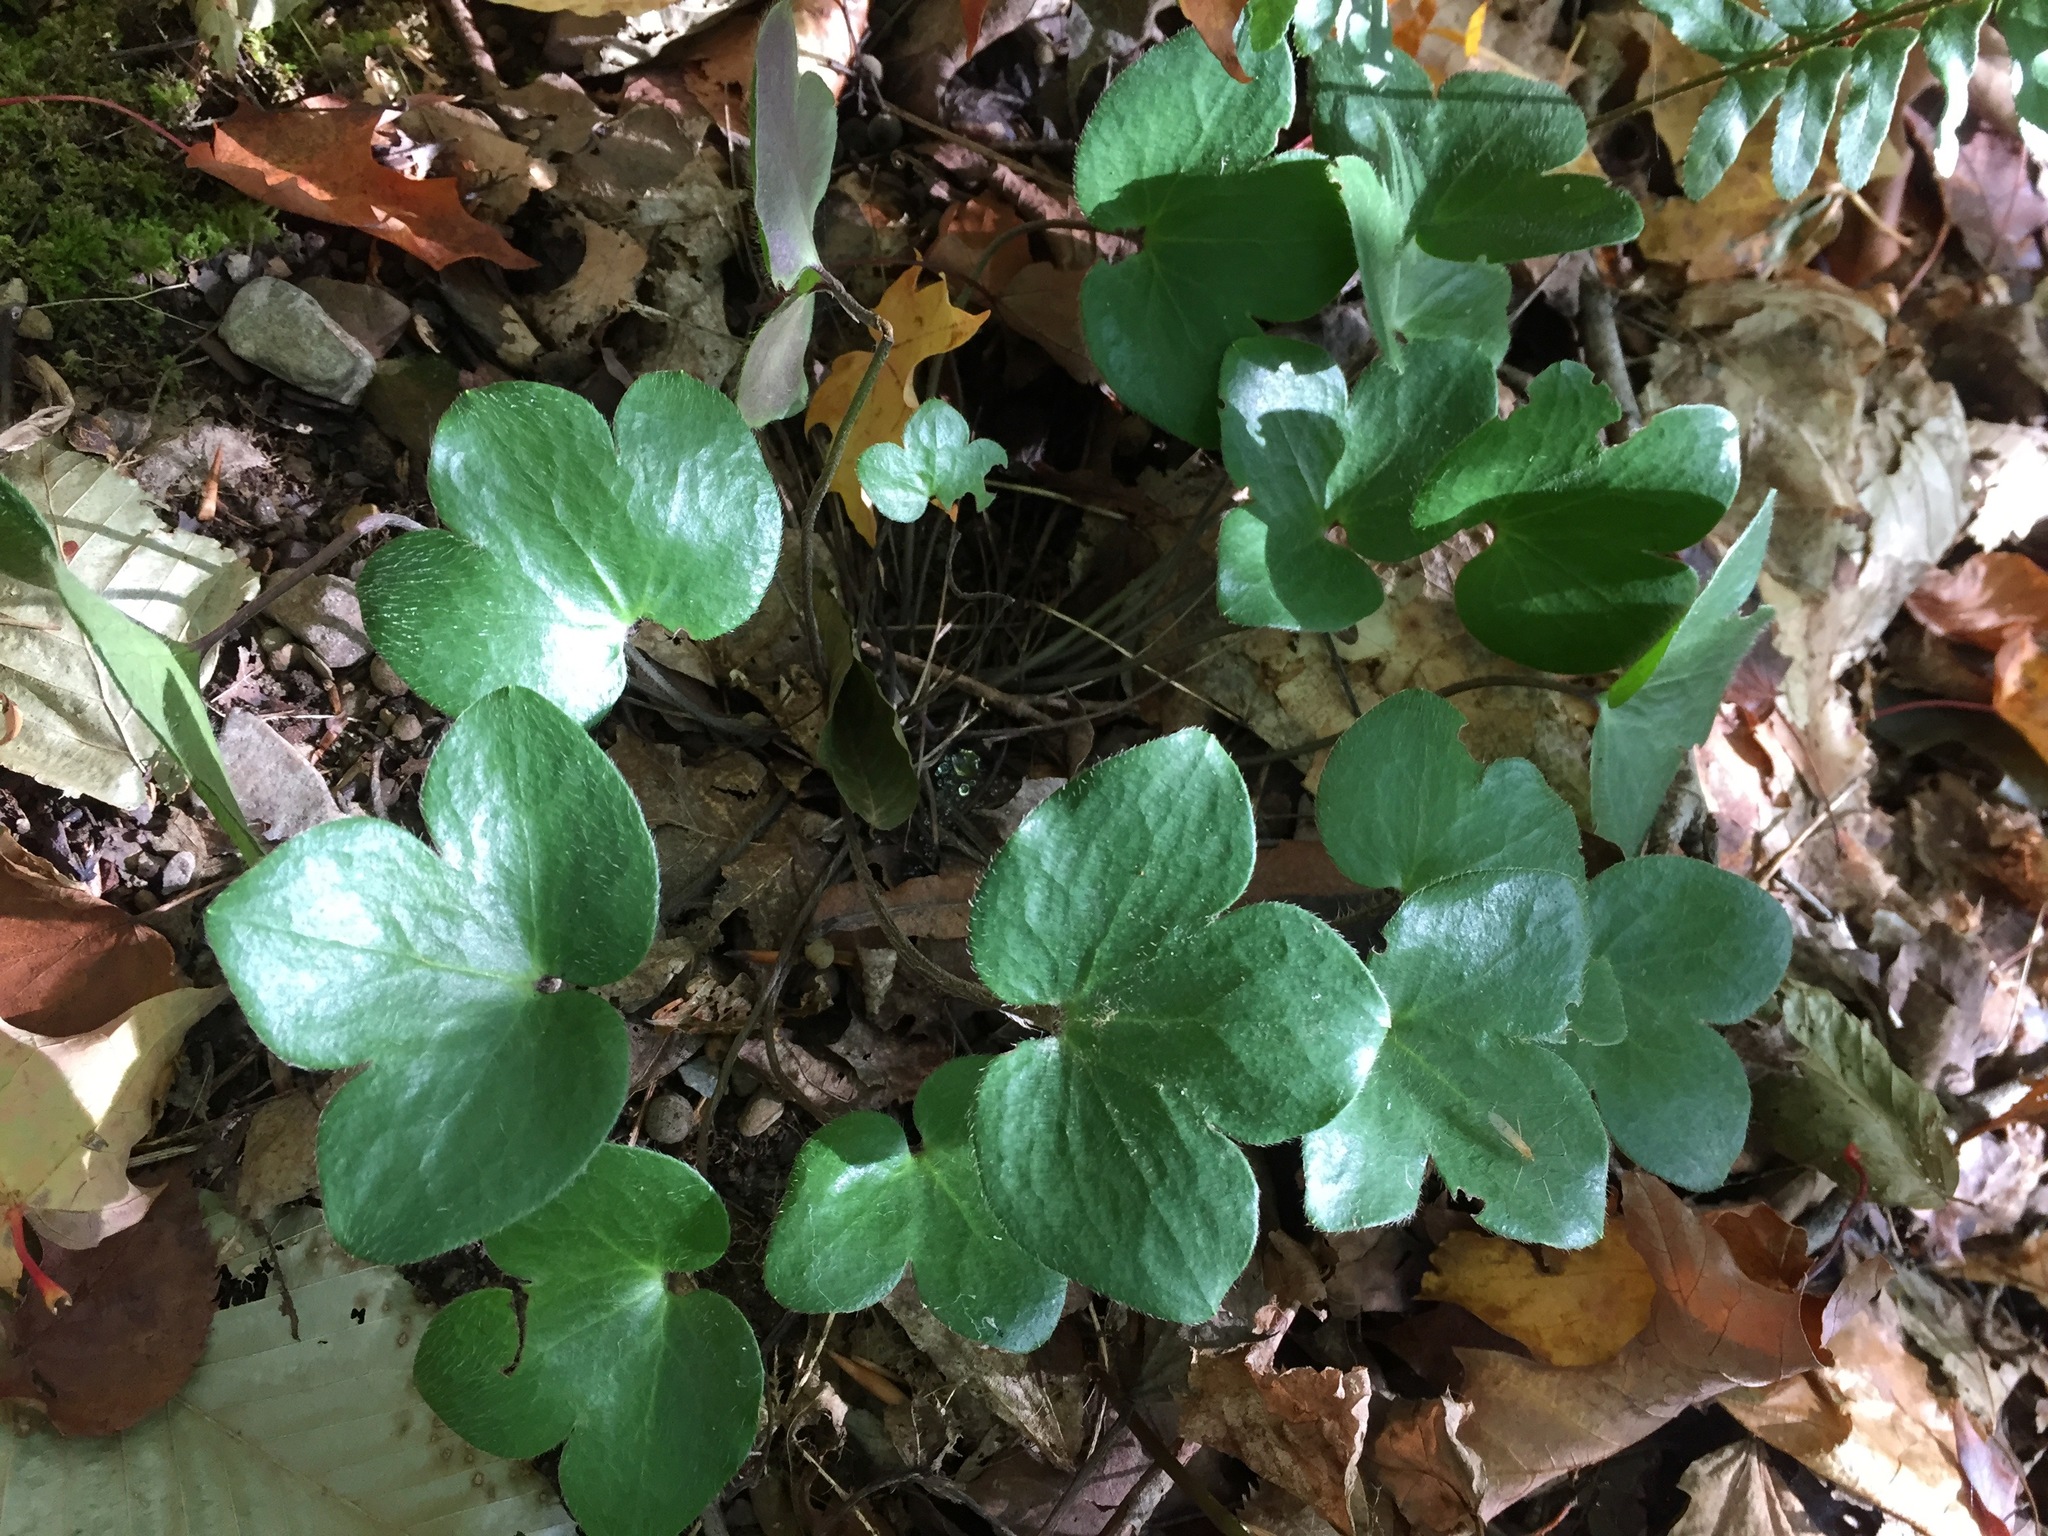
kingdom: Plantae
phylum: Tracheophyta
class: Magnoliopsida
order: Ranunculales
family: Ranunculaceae
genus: Hepatica
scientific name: Hepatica americana
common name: American hepatica
